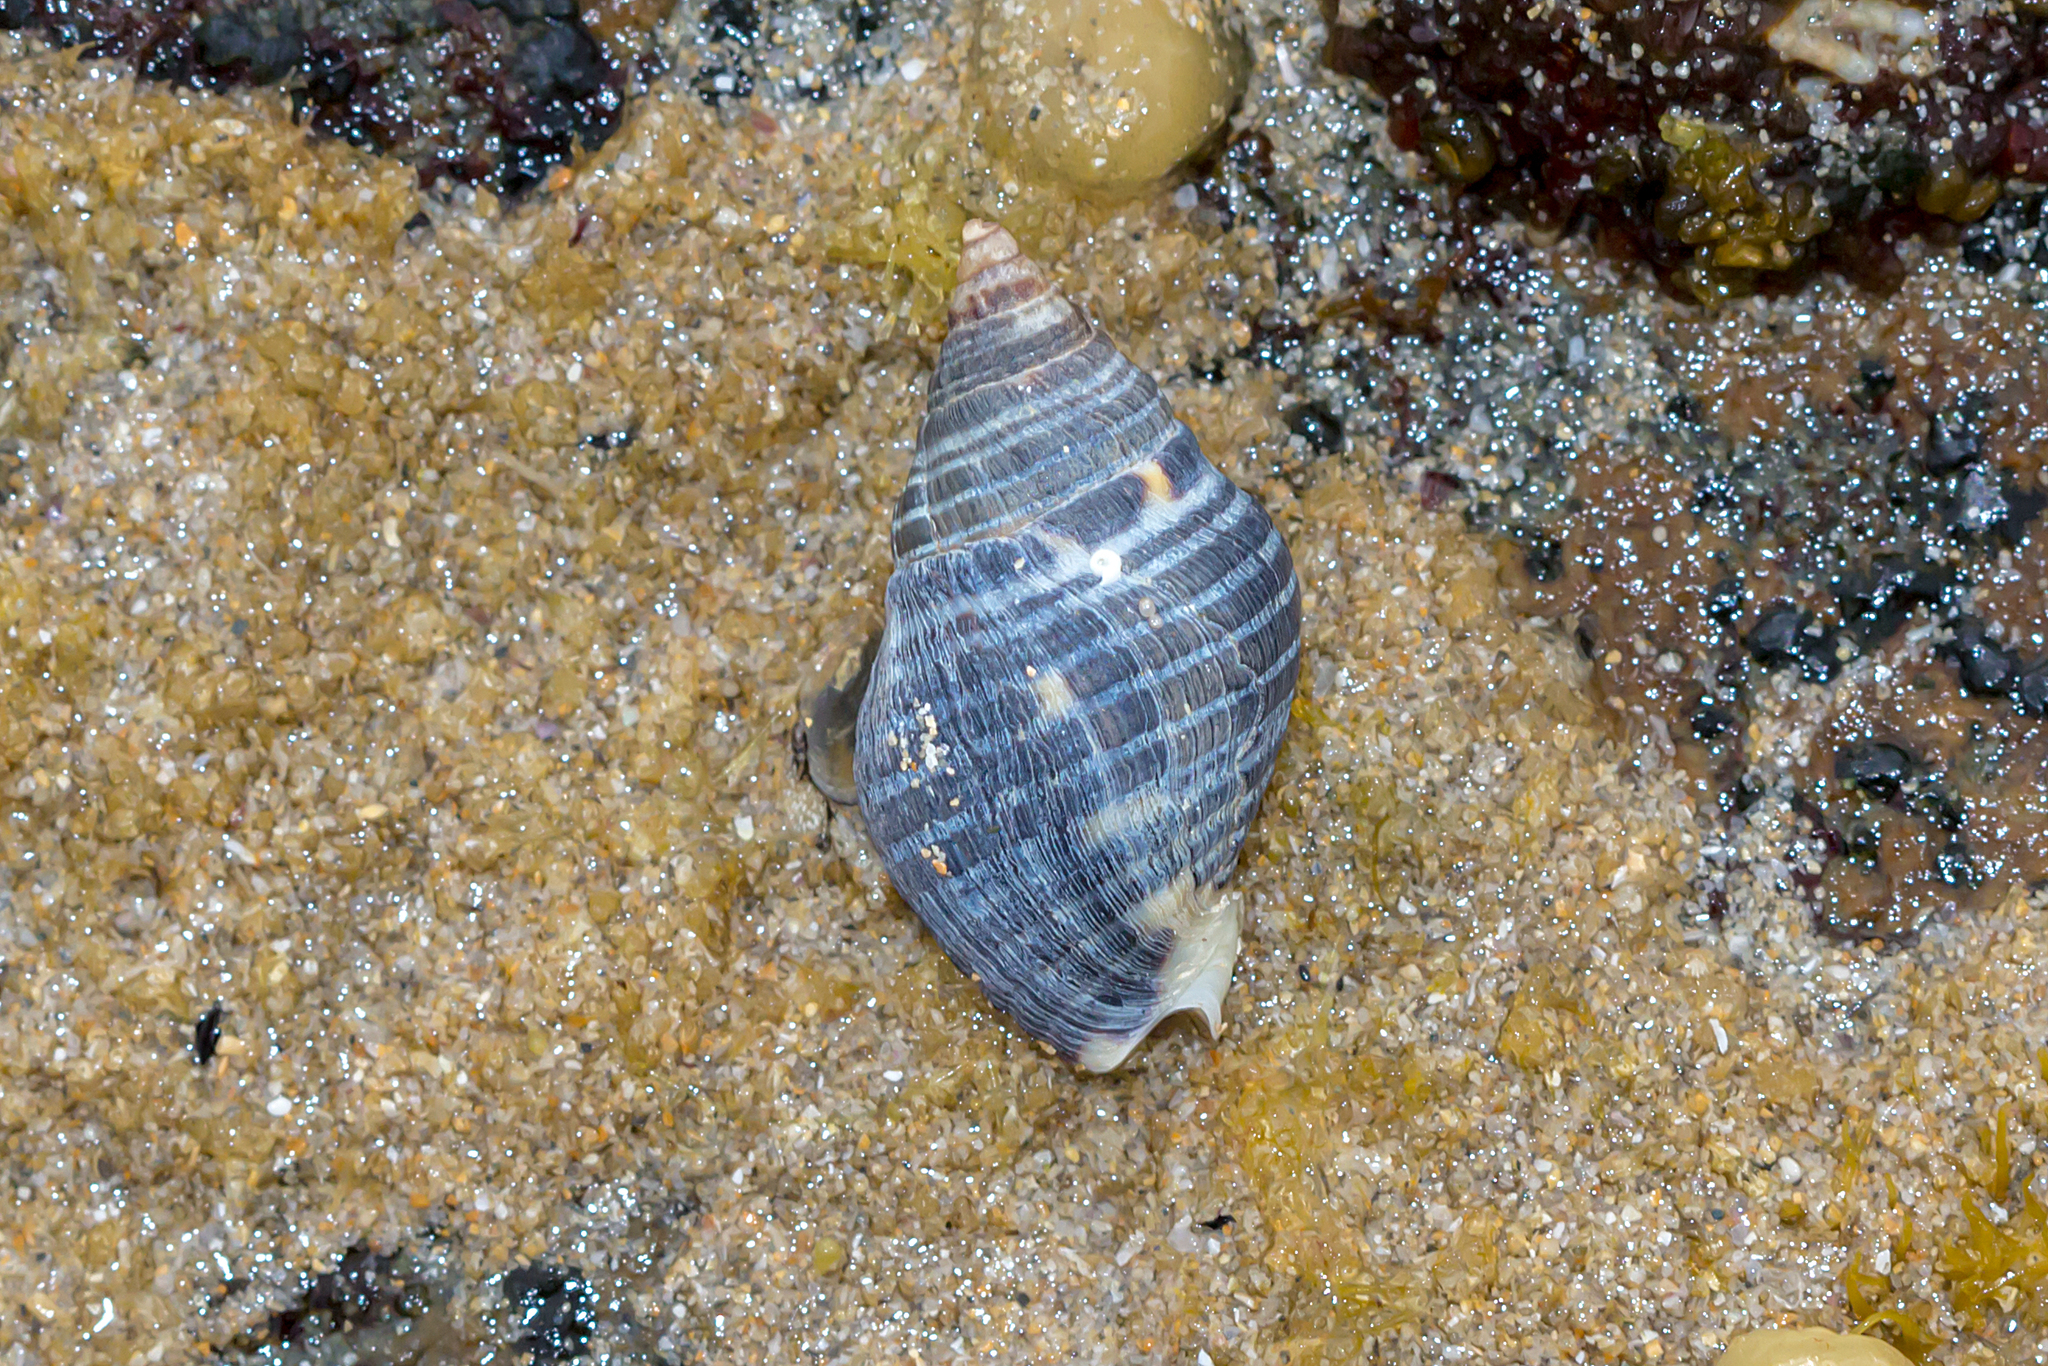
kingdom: Animalia
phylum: Mollusca
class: Gastropoda
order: Neogastropoda
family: Cominellidae
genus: Cominella
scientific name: Cominella lineolata
